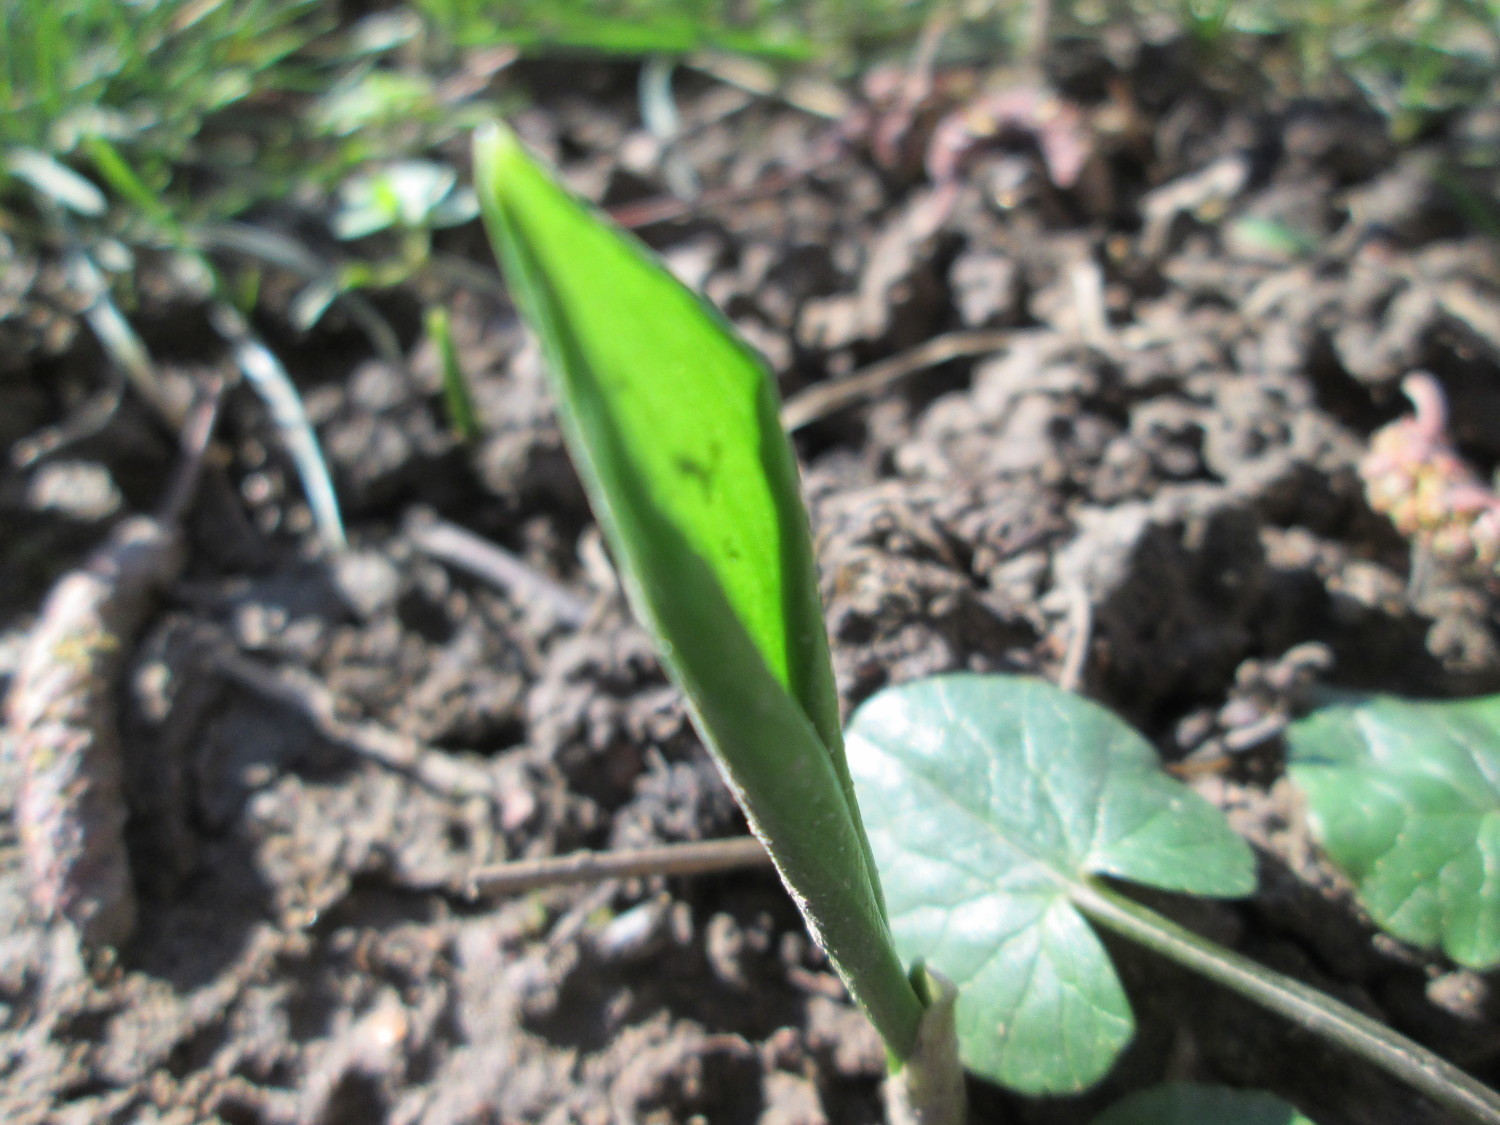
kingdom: Plantae
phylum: Tracheophyta
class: Liliopsida
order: Asparagales
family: Amaryllidaceae
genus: Allium
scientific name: Allium ursinum
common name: Ramsons
